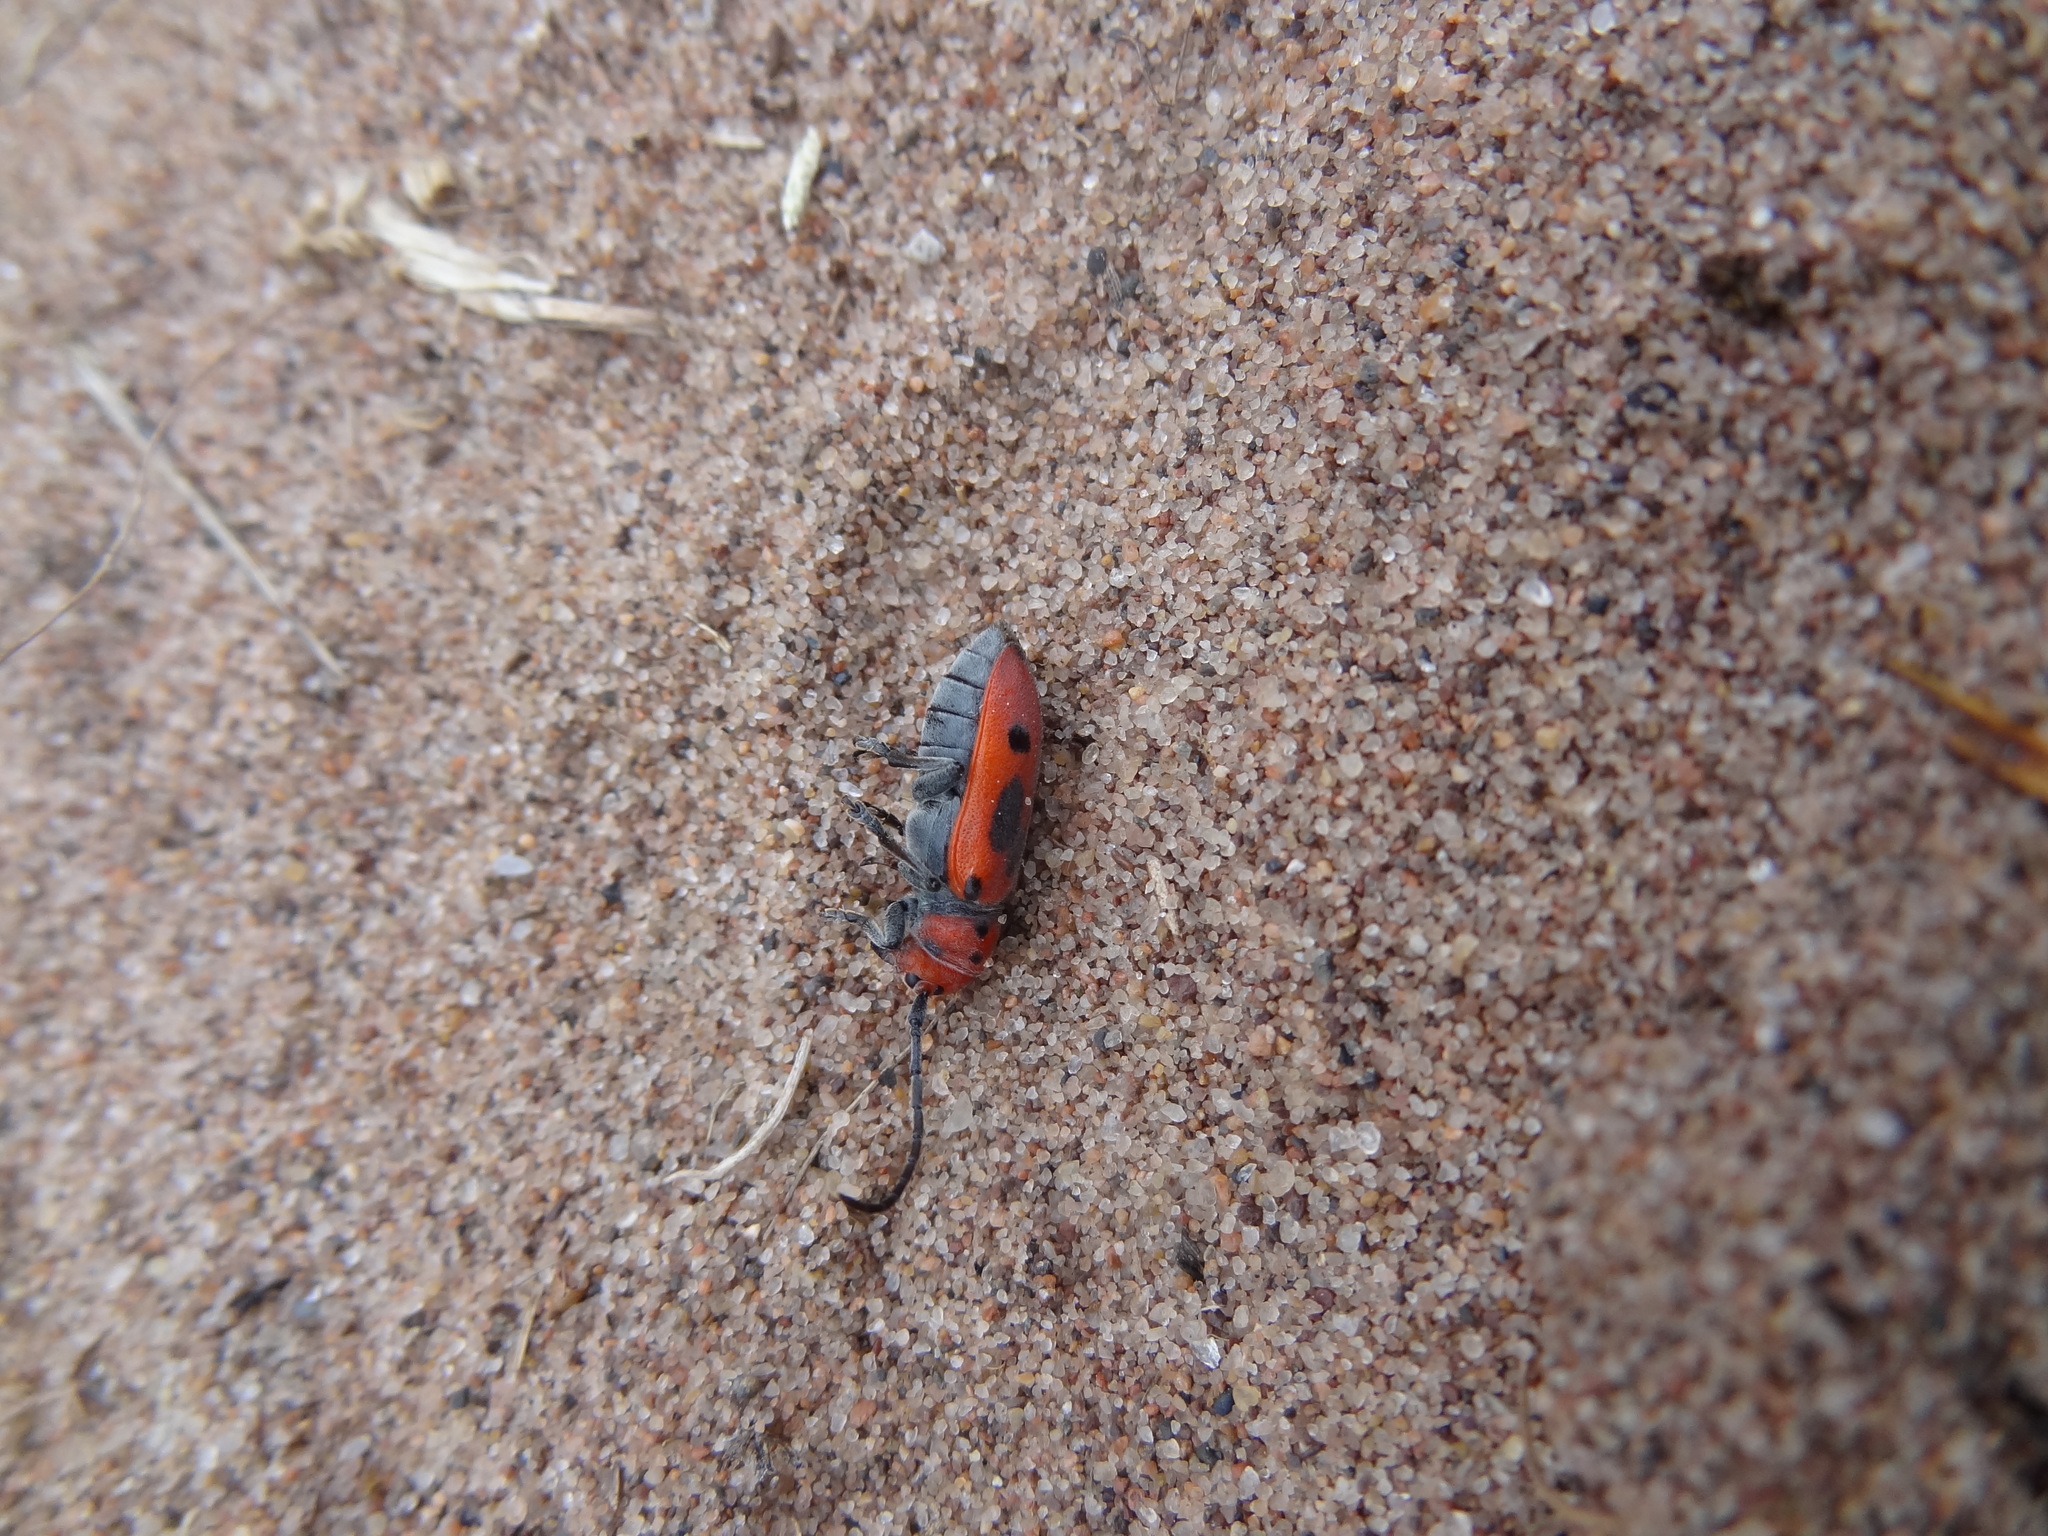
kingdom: Animalia
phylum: Arthropoda
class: Insecta
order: Coleoptera
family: Cerambycidae
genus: Tetraopes
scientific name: Tetraopes tetrophthalmus
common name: Red milkweed beetle
